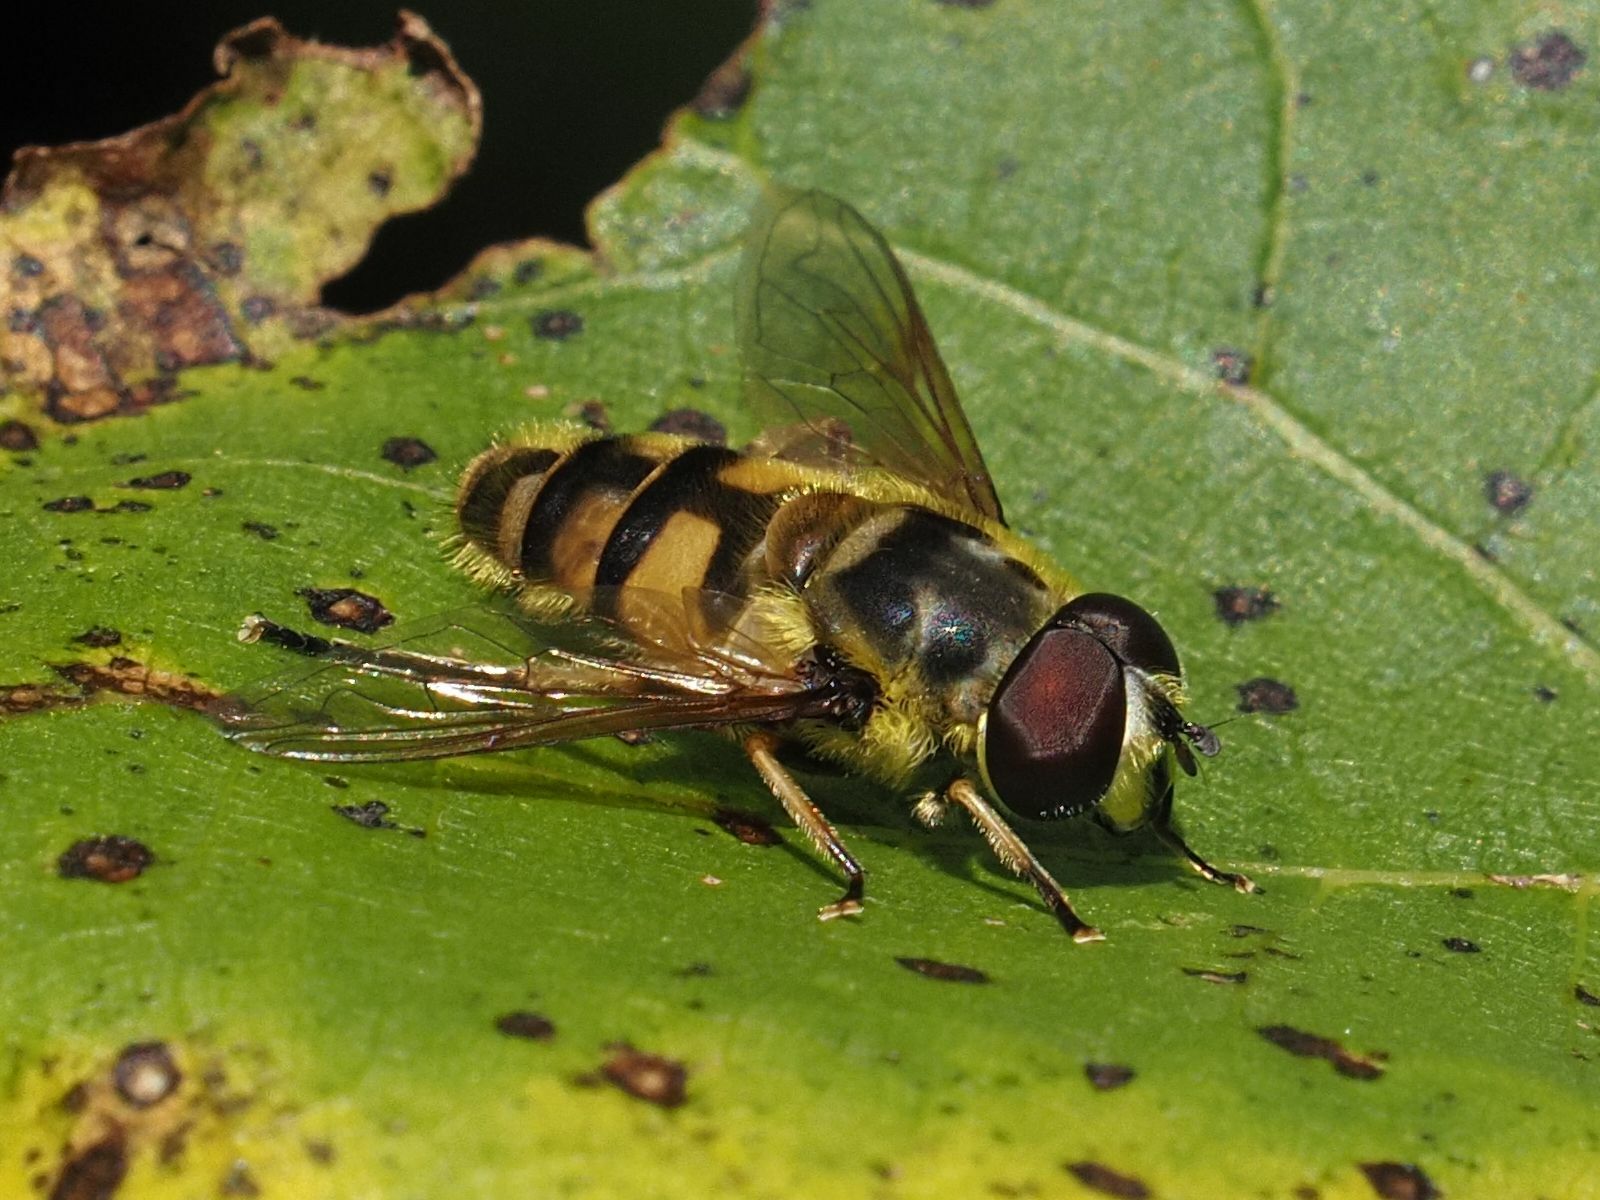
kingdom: Animalia
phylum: Arthropoda
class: Insecta
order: Diptera
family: Syrphidae
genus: Myathropa
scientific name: Myathropa florea
